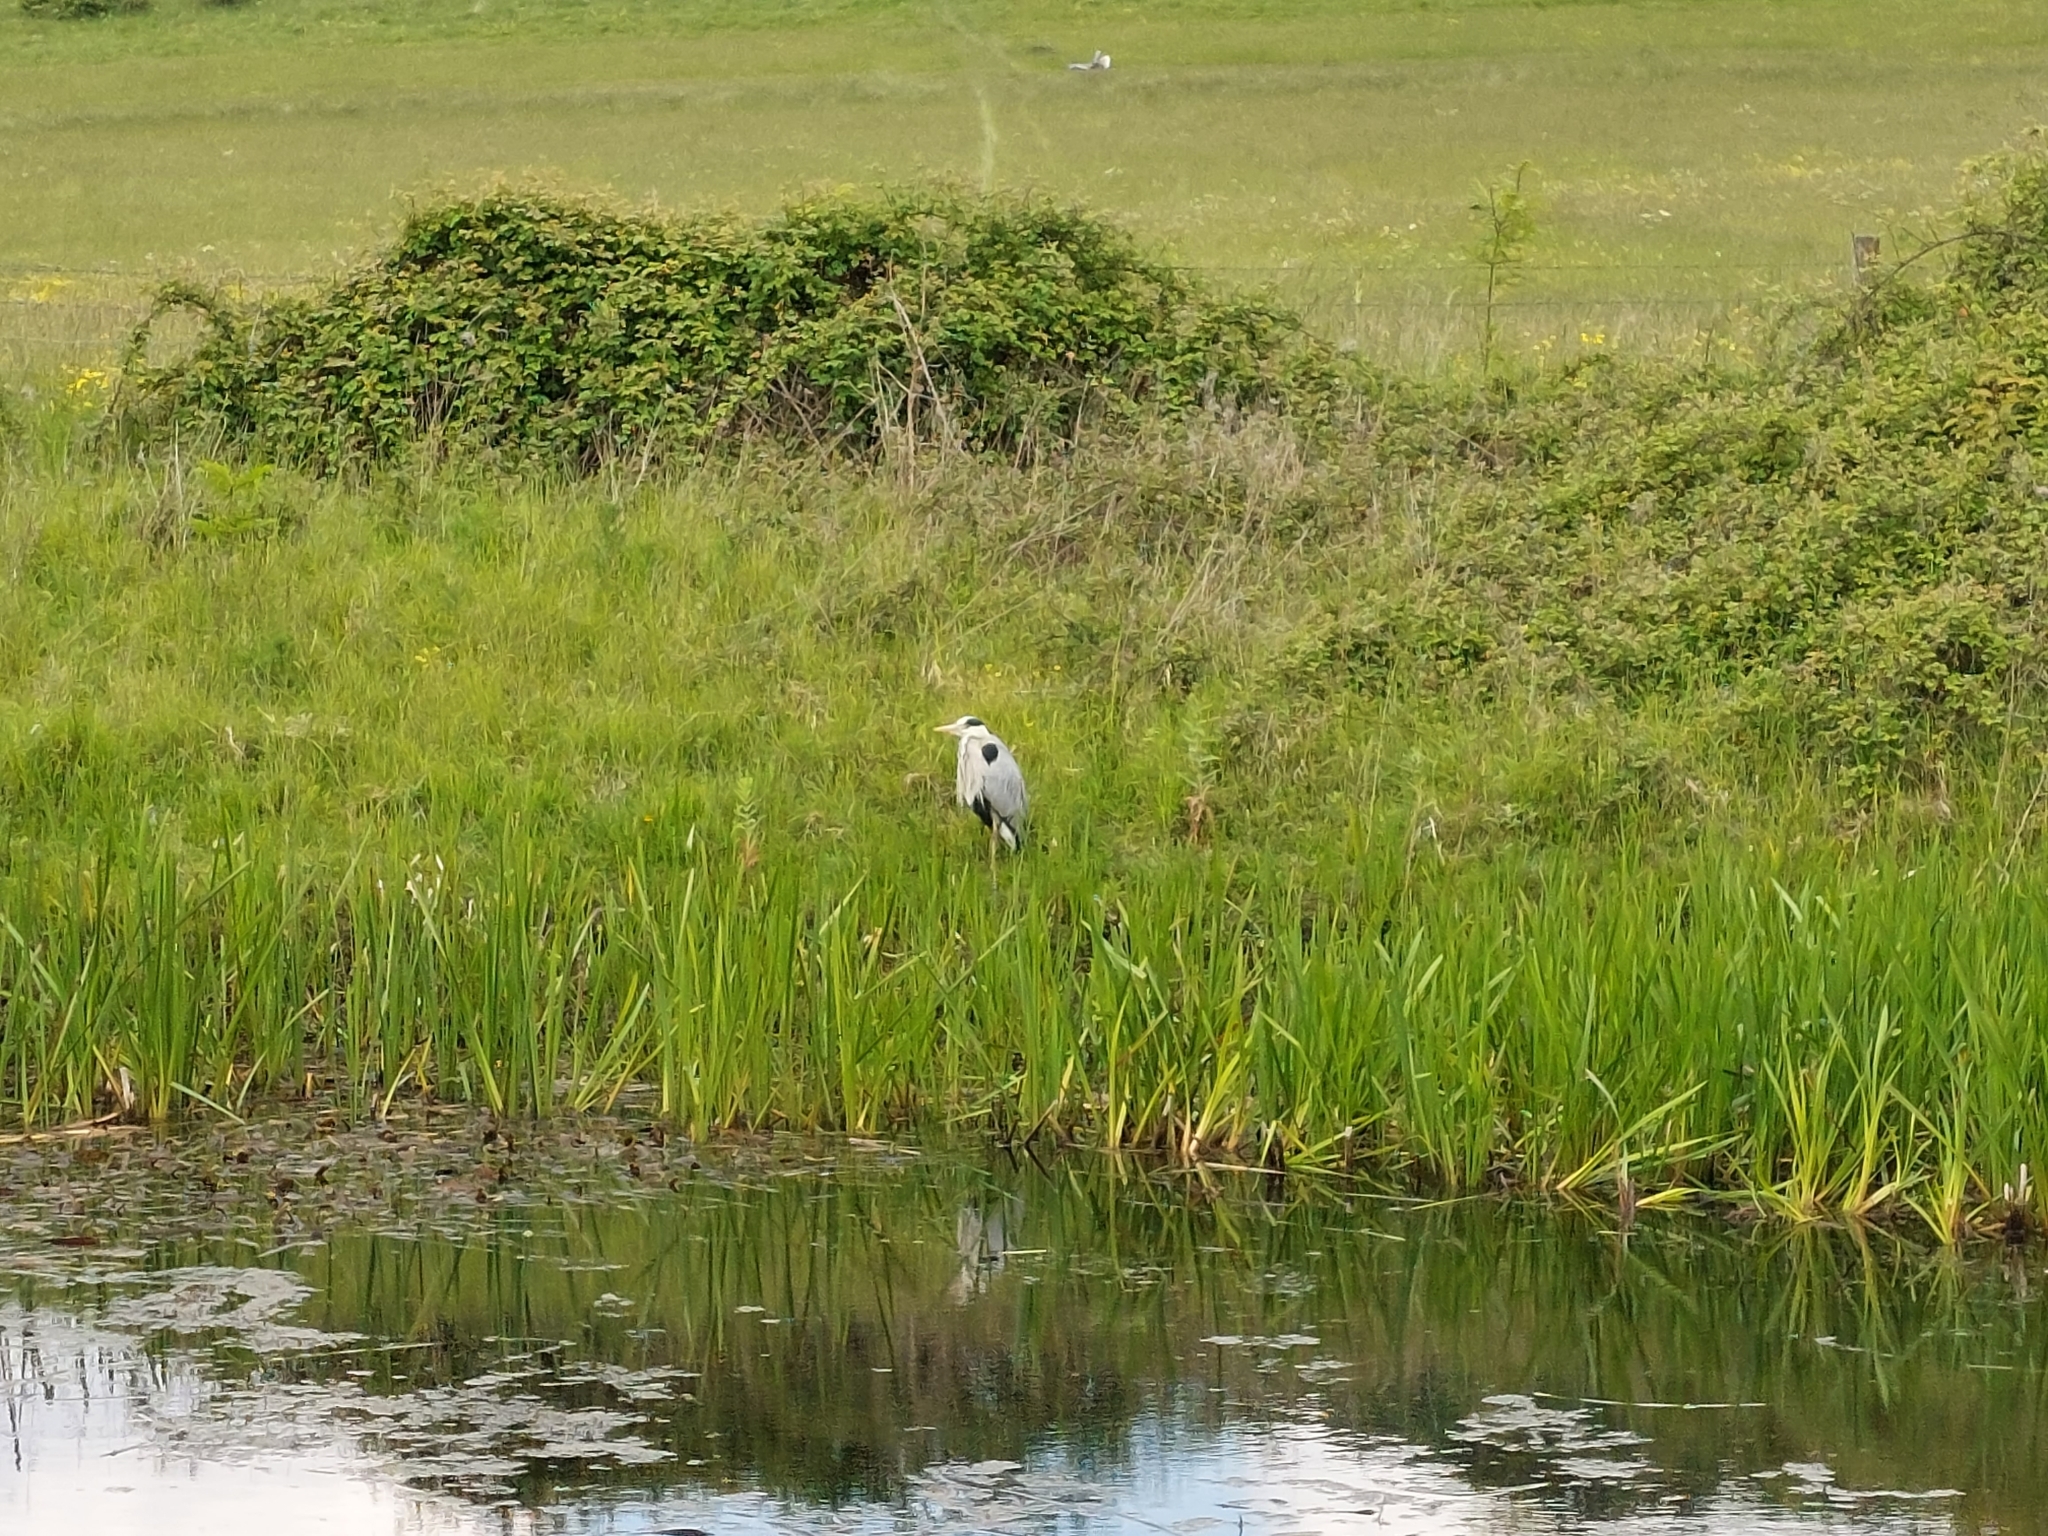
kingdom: Animalia
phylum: Chordata
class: Aves
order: Pelecaniformes
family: Ardeidae
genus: Ardea
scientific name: Ardea cinerea
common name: Grey heron
